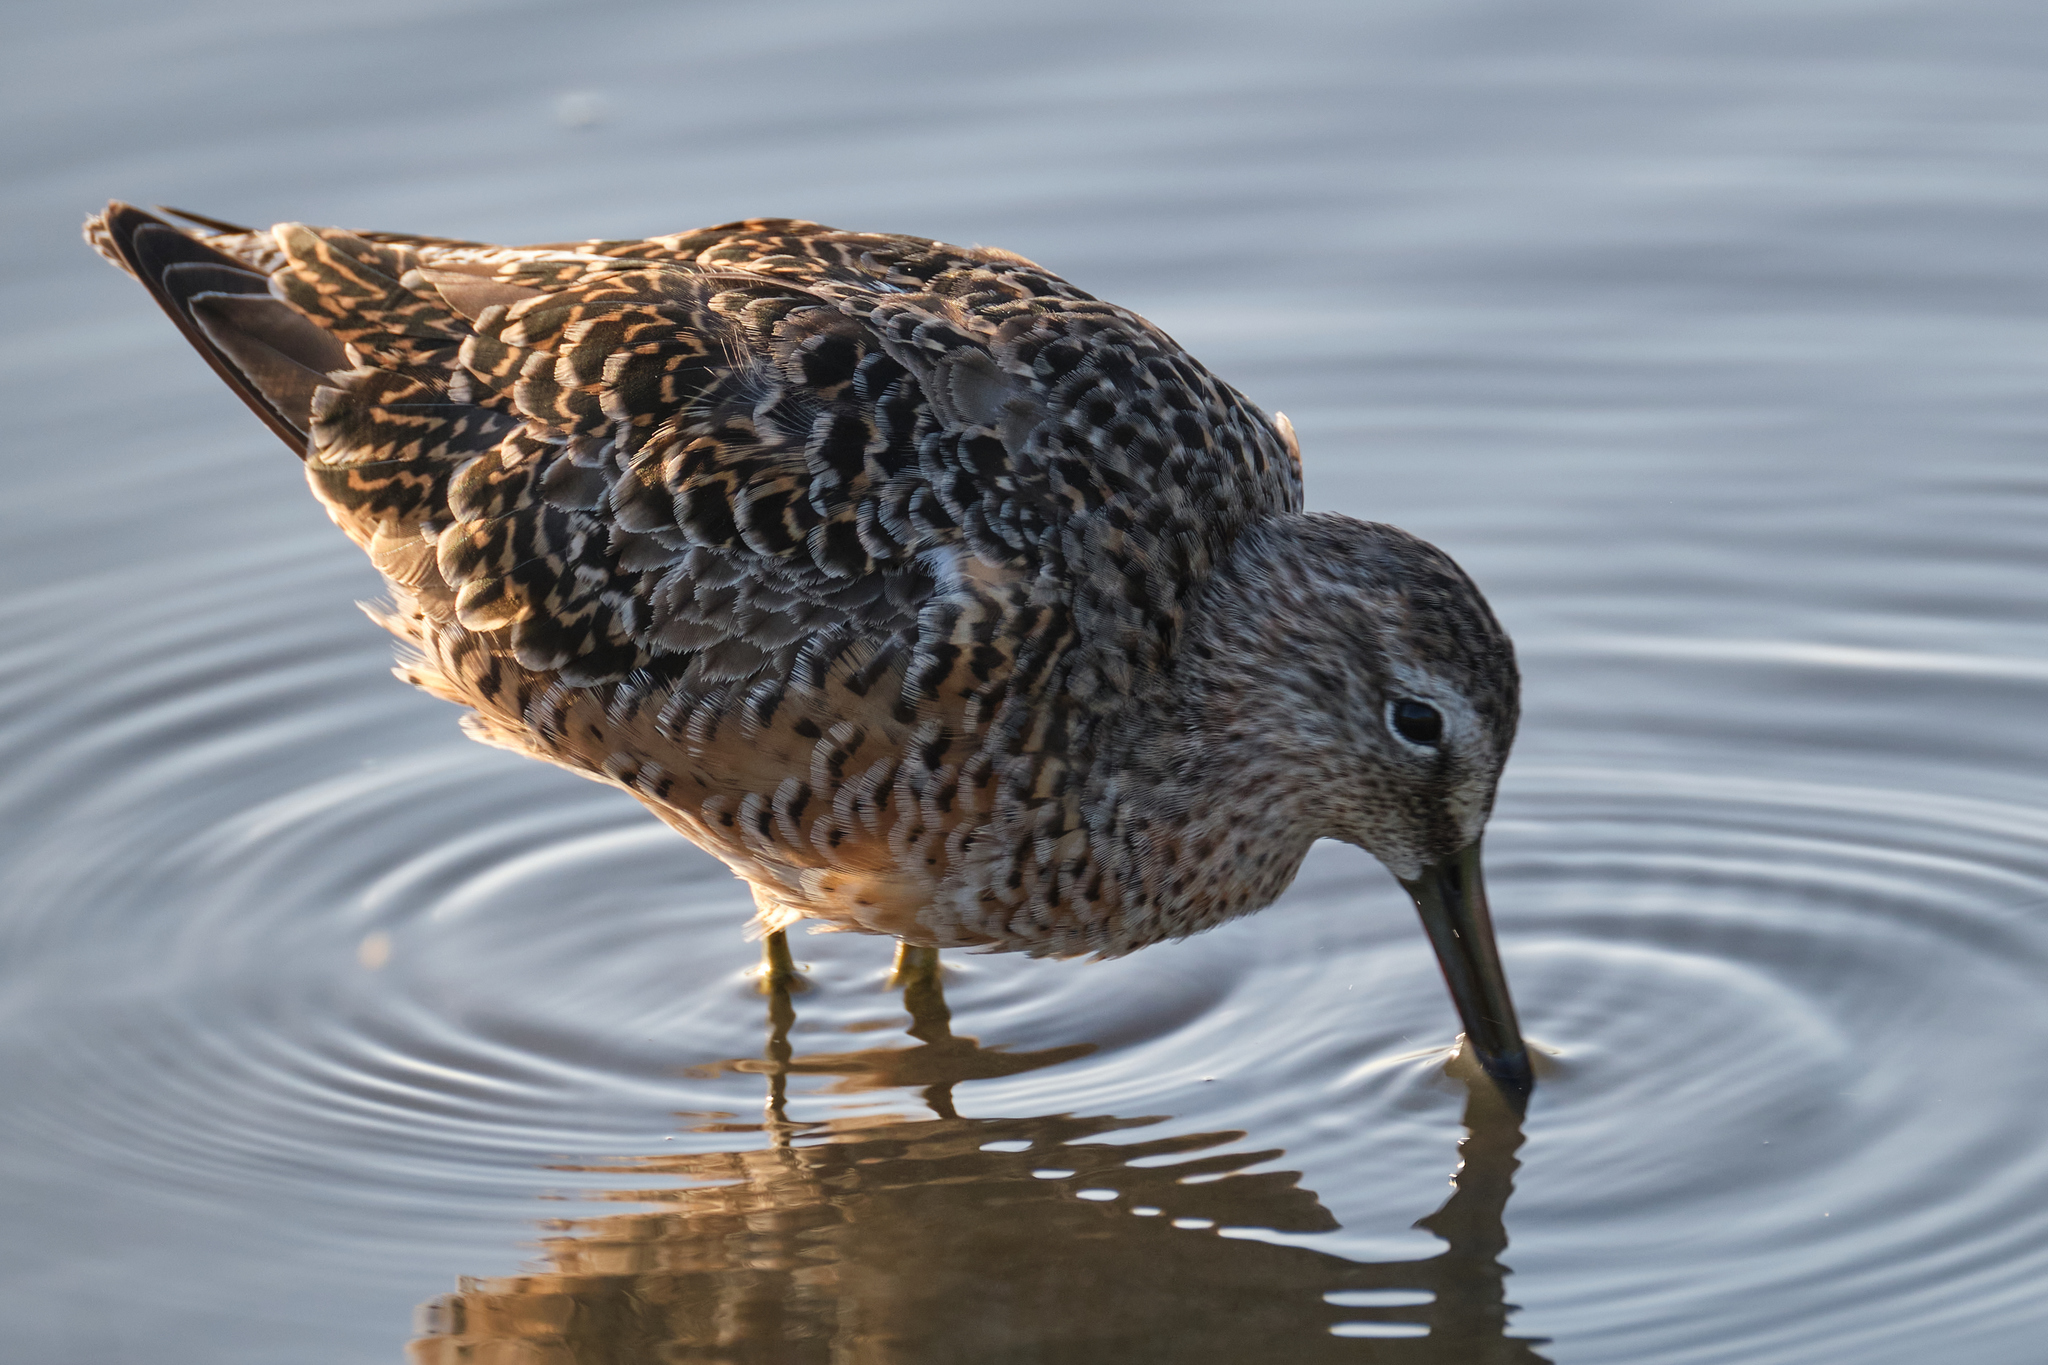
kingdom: Animalia
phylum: Chordata
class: Aves
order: Charadriiformes
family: Scolopacidae
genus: Limnodromus
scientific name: Limnodromus scolopaceus
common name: Long-billed dowitcher
